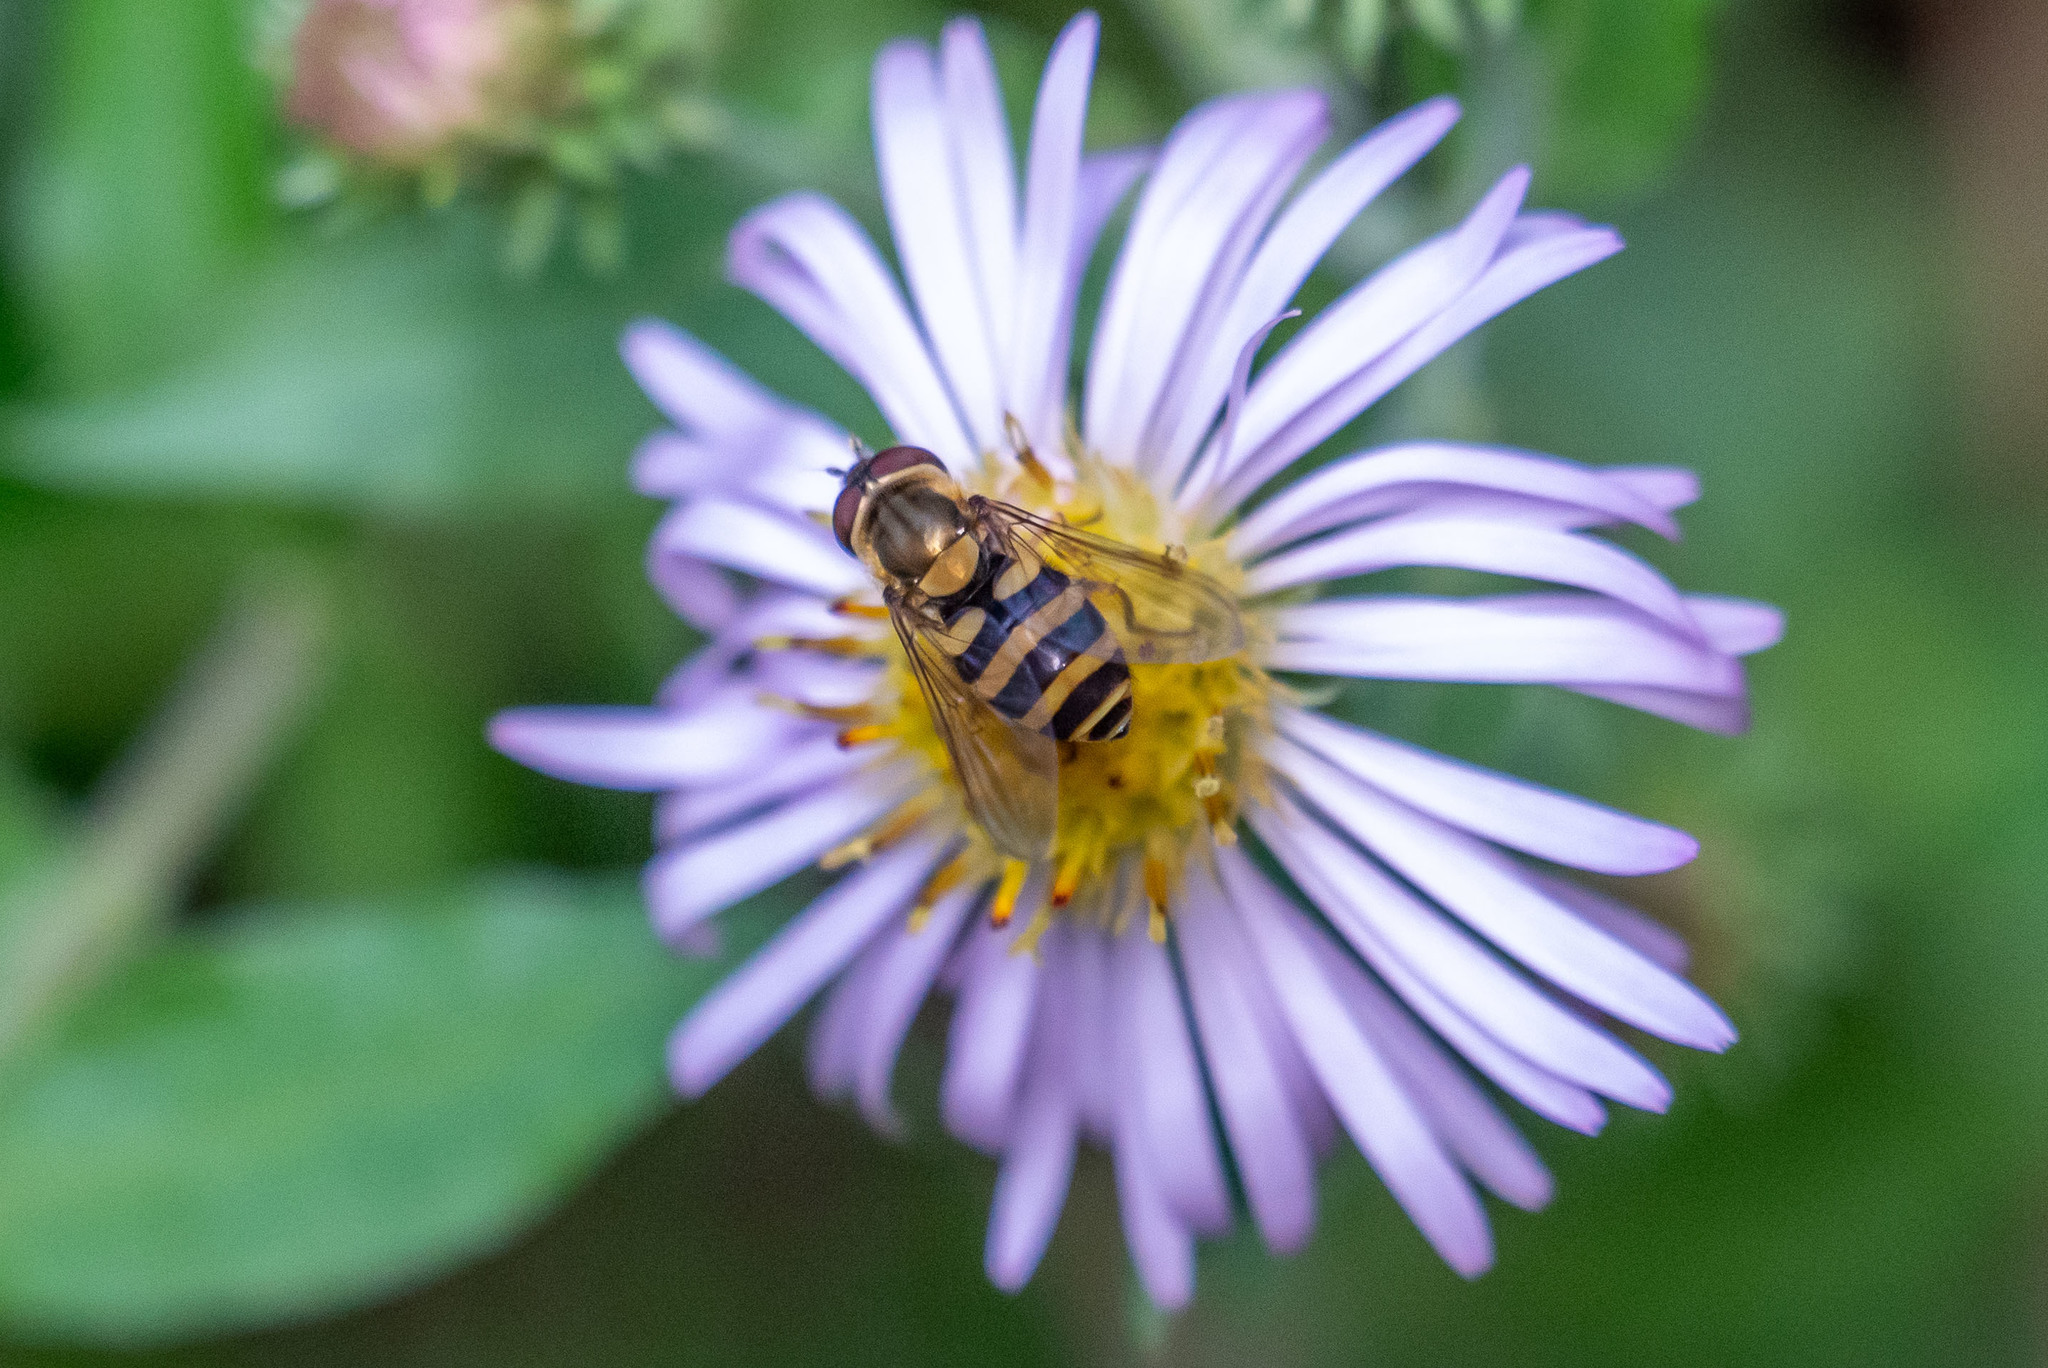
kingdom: Animalia
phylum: Arthropoda
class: Insecta
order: Diptera
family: Syrphidae
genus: Syrphus
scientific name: Syrphus
